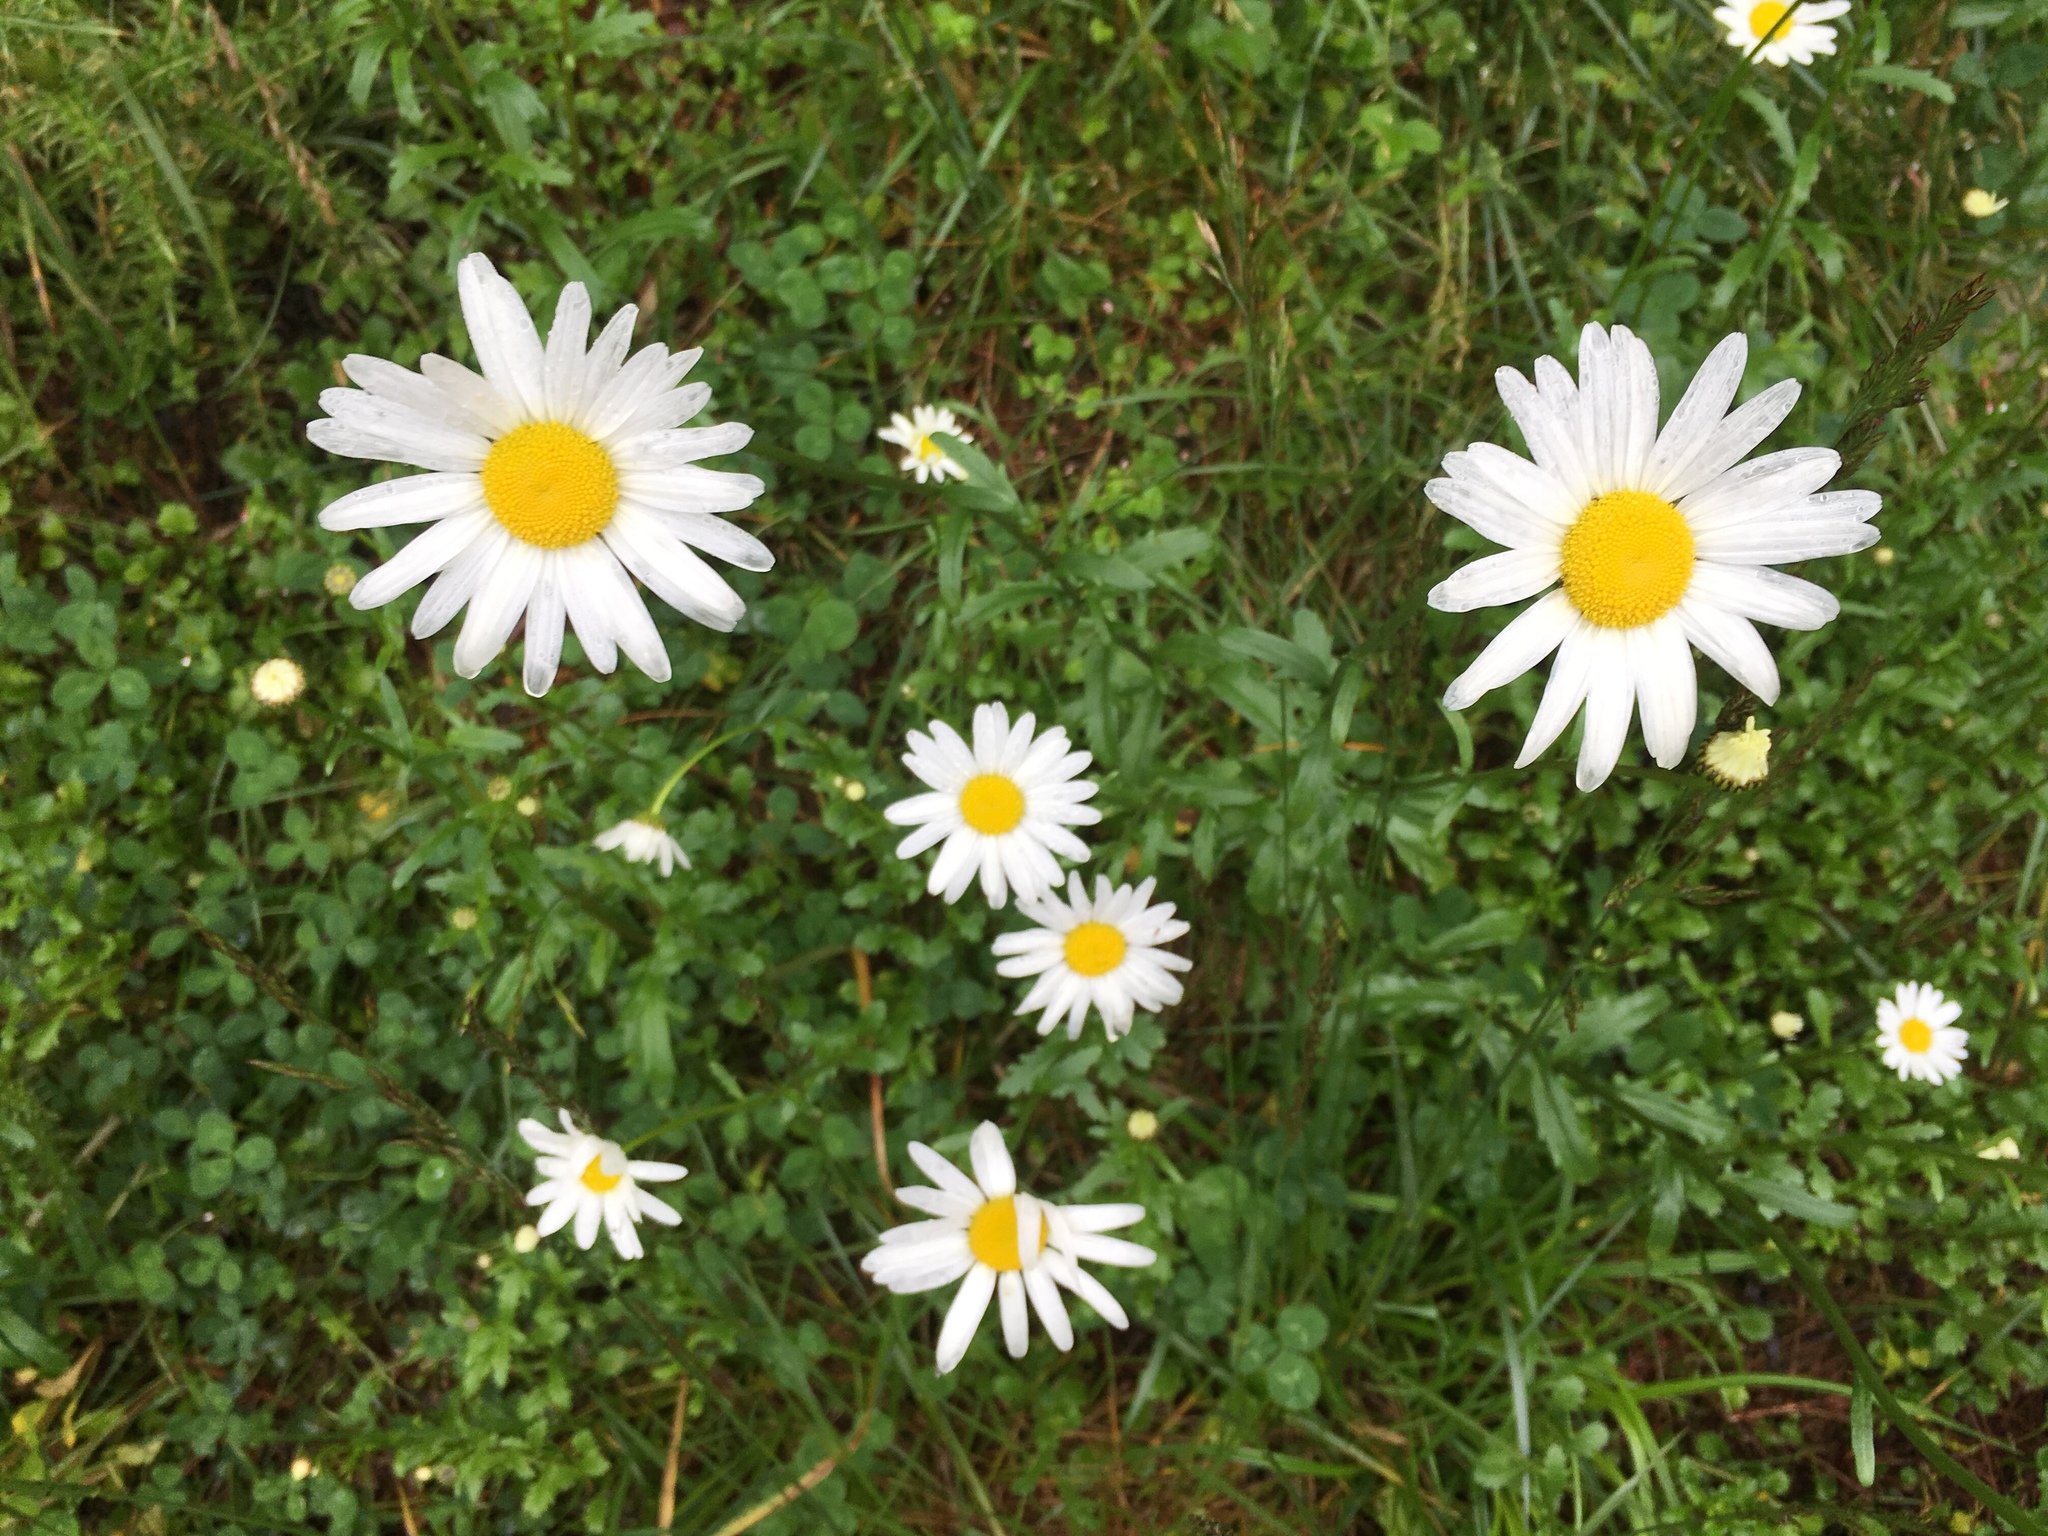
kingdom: Plantae
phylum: Tracheophyta
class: Magnoliopsida
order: Asterales
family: Asteraceae
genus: Leucanthemum
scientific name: Leucanthemum vulgare
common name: Oxeye daisy
